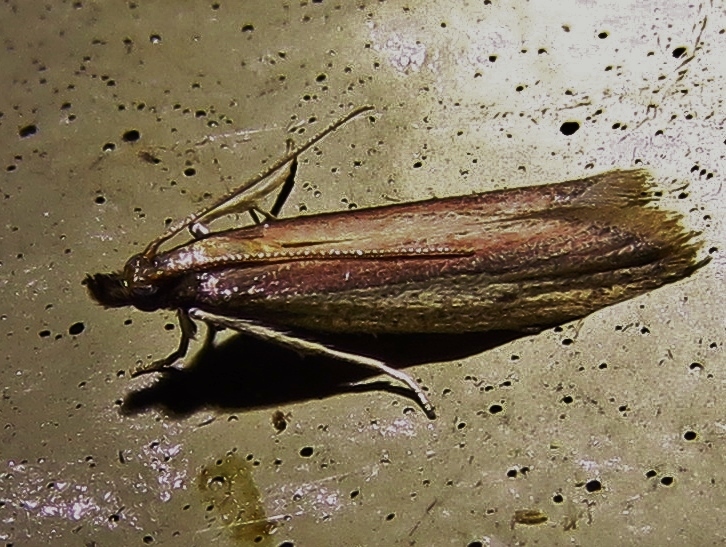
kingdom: Animalia
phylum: Arthropoda
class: Insecta
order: Lepidoptera
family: Pyralidae
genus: Tampa
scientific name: Tampa dimediatella
